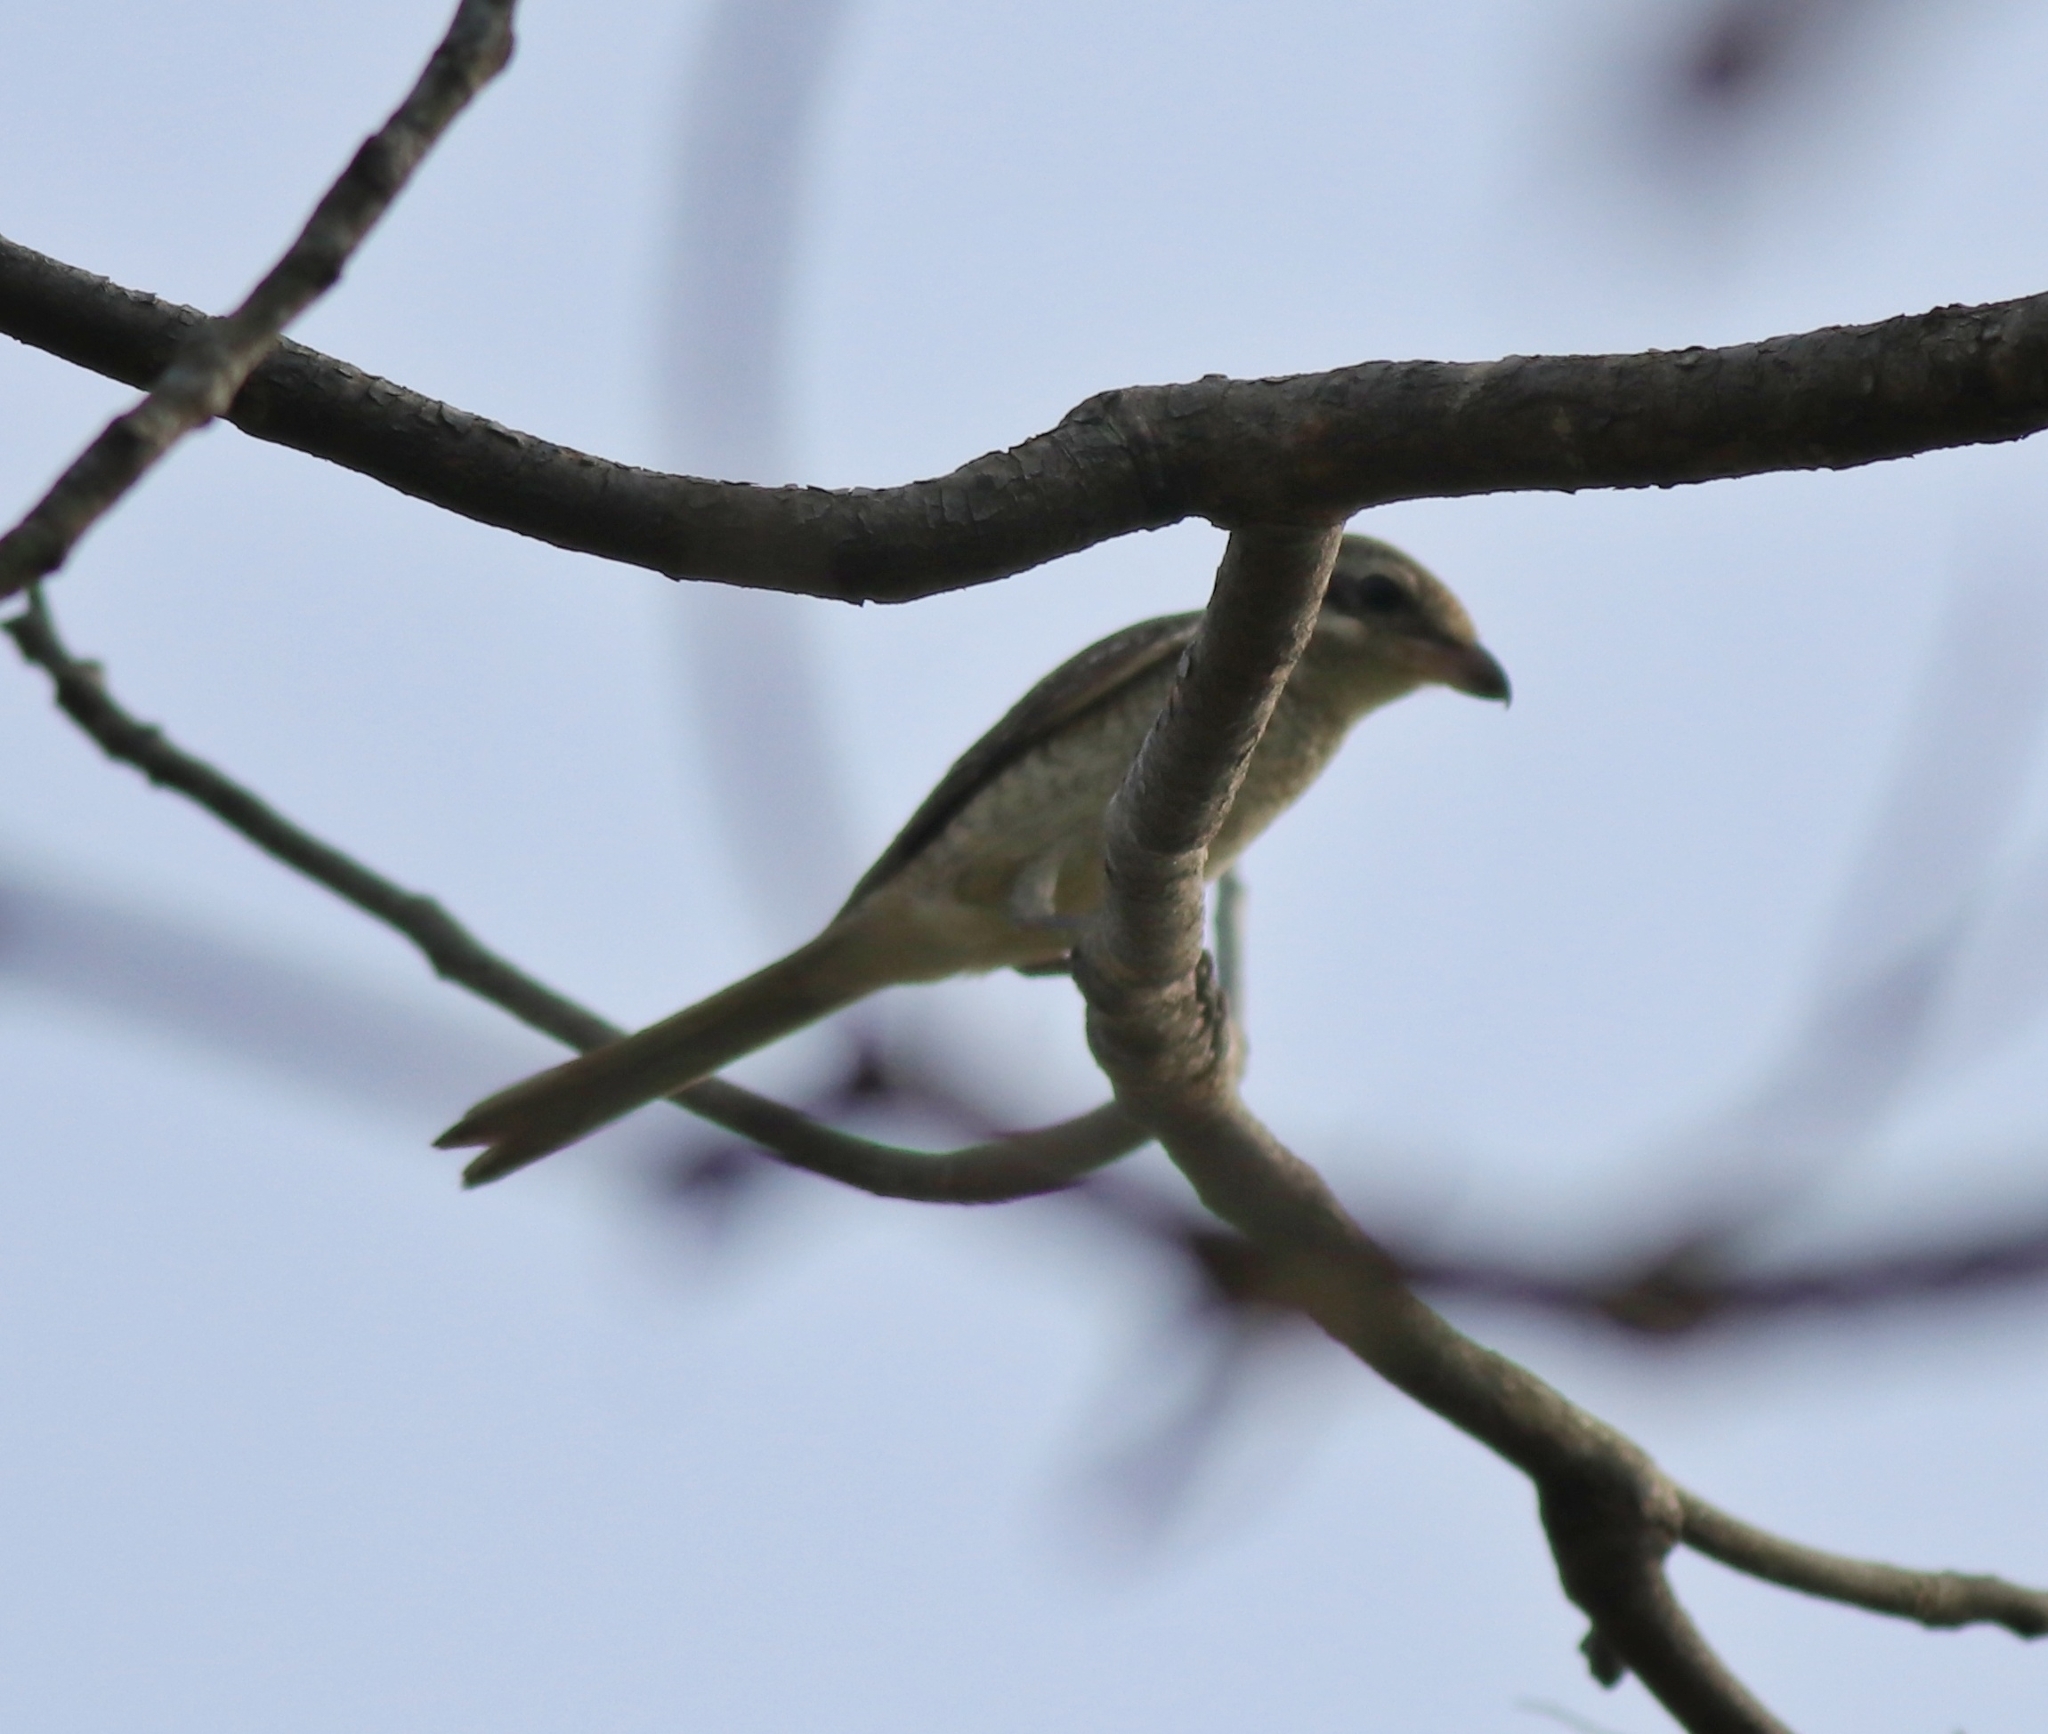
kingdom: Animalia
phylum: Chordata
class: Aves
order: Passeriformes
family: Laniidae
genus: Lanius
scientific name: Lanius cristatus
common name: Brown shrike
